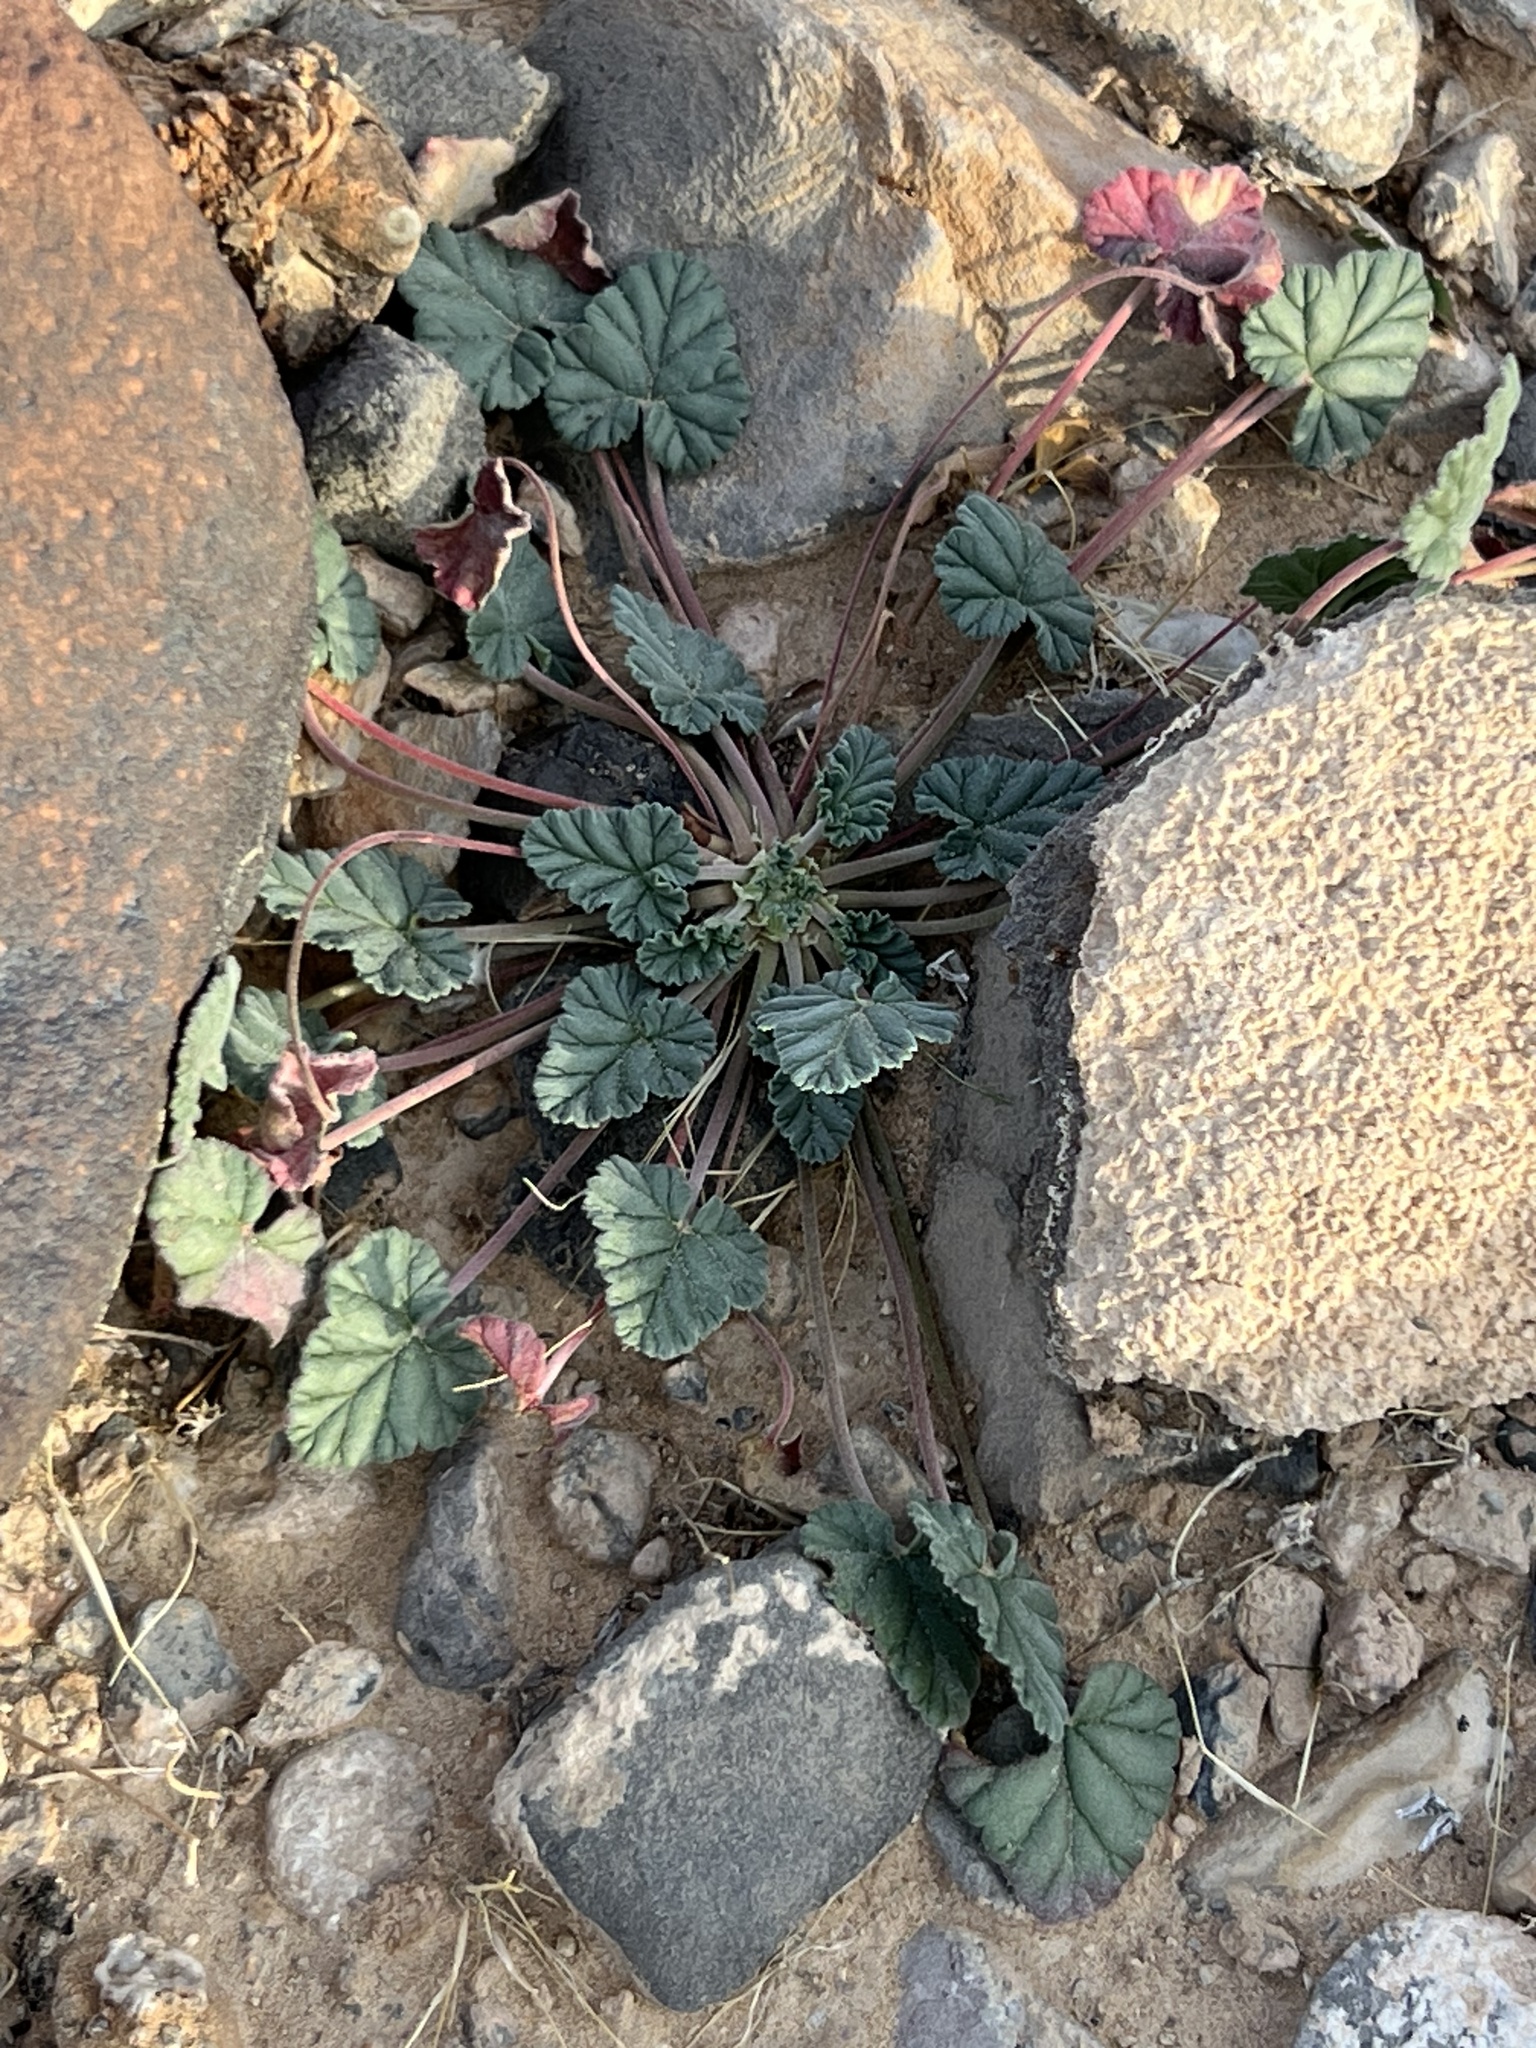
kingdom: Plantae
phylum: Tracheophyta
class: Magnoliopsida
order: Geraniales
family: Geraniaceae
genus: Erodium
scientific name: Erodium texanum
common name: Texas stork's-bill
